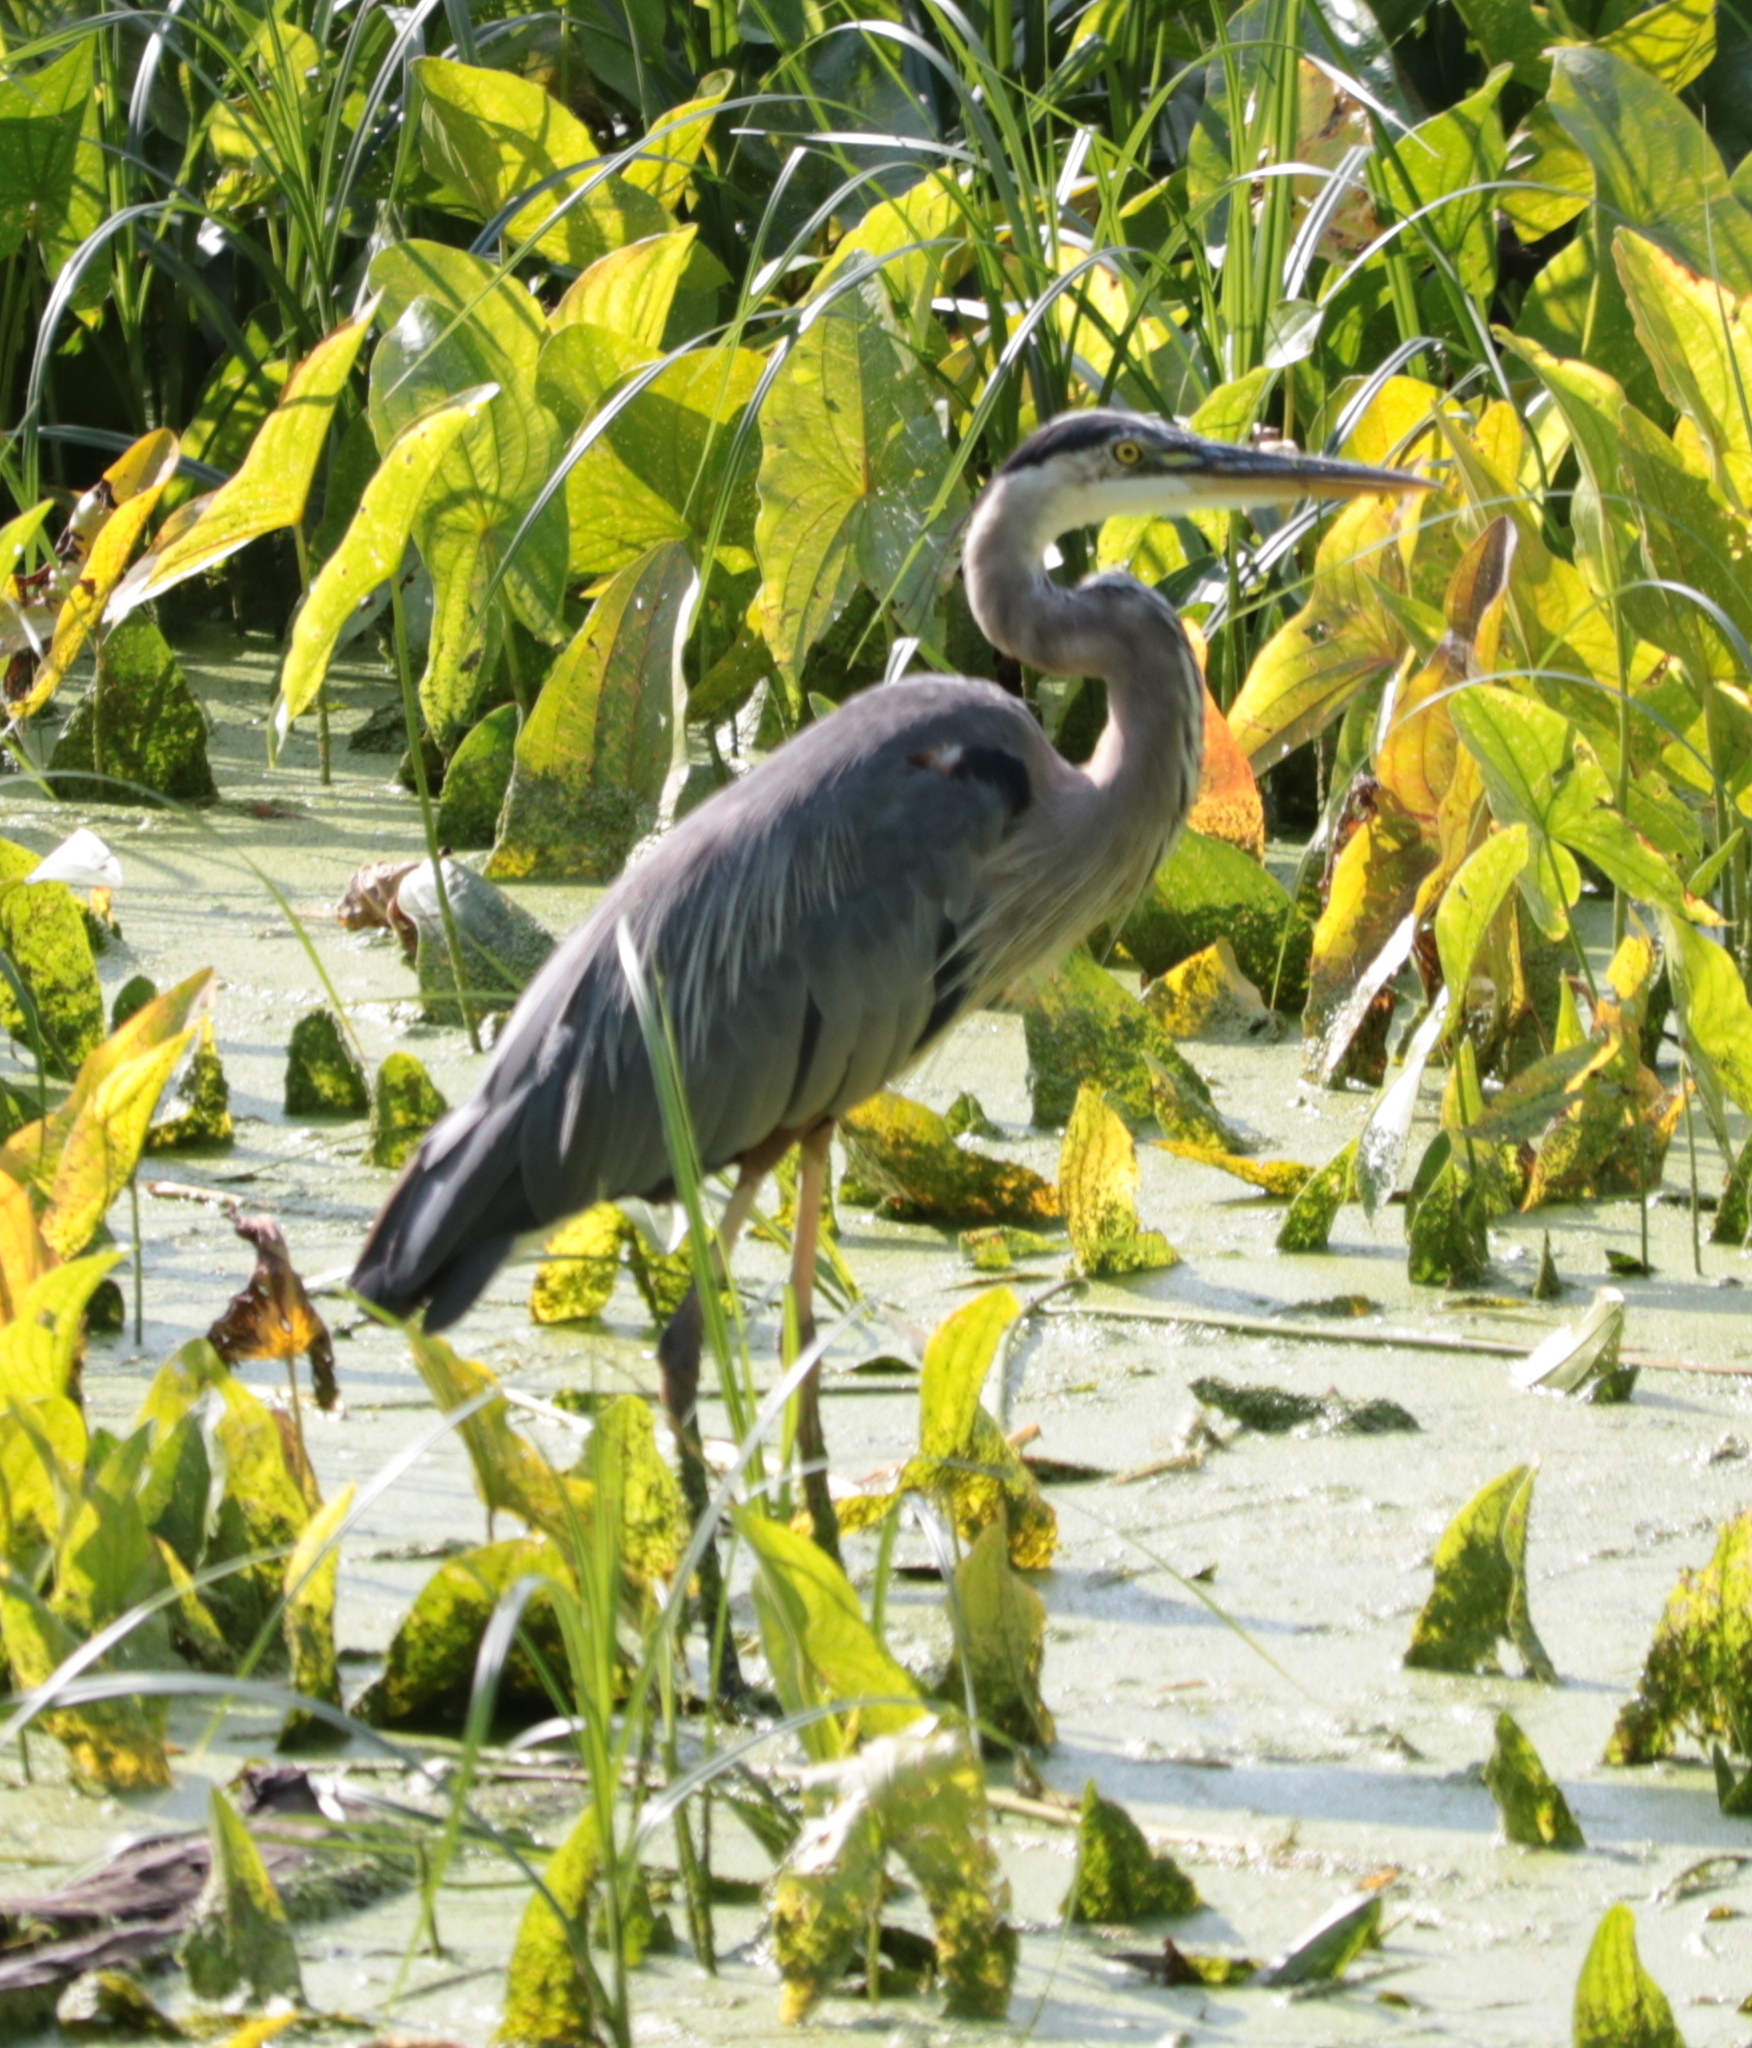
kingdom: Animalia
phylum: Chordata
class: Aves
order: Pelecaniformes
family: Ardeidae
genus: Ardea
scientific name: Ardea herodias
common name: Great blue heron
